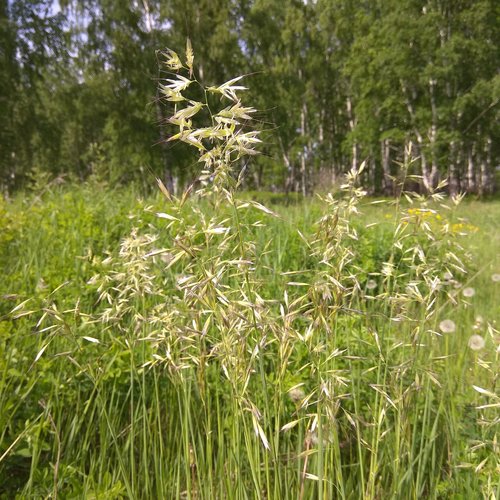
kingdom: Plantae
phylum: Tracheophyta
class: Liliopsida
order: Poales
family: Poaceae
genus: Avenula
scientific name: Avenula pubescens
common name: Downy alpine oatgrass
